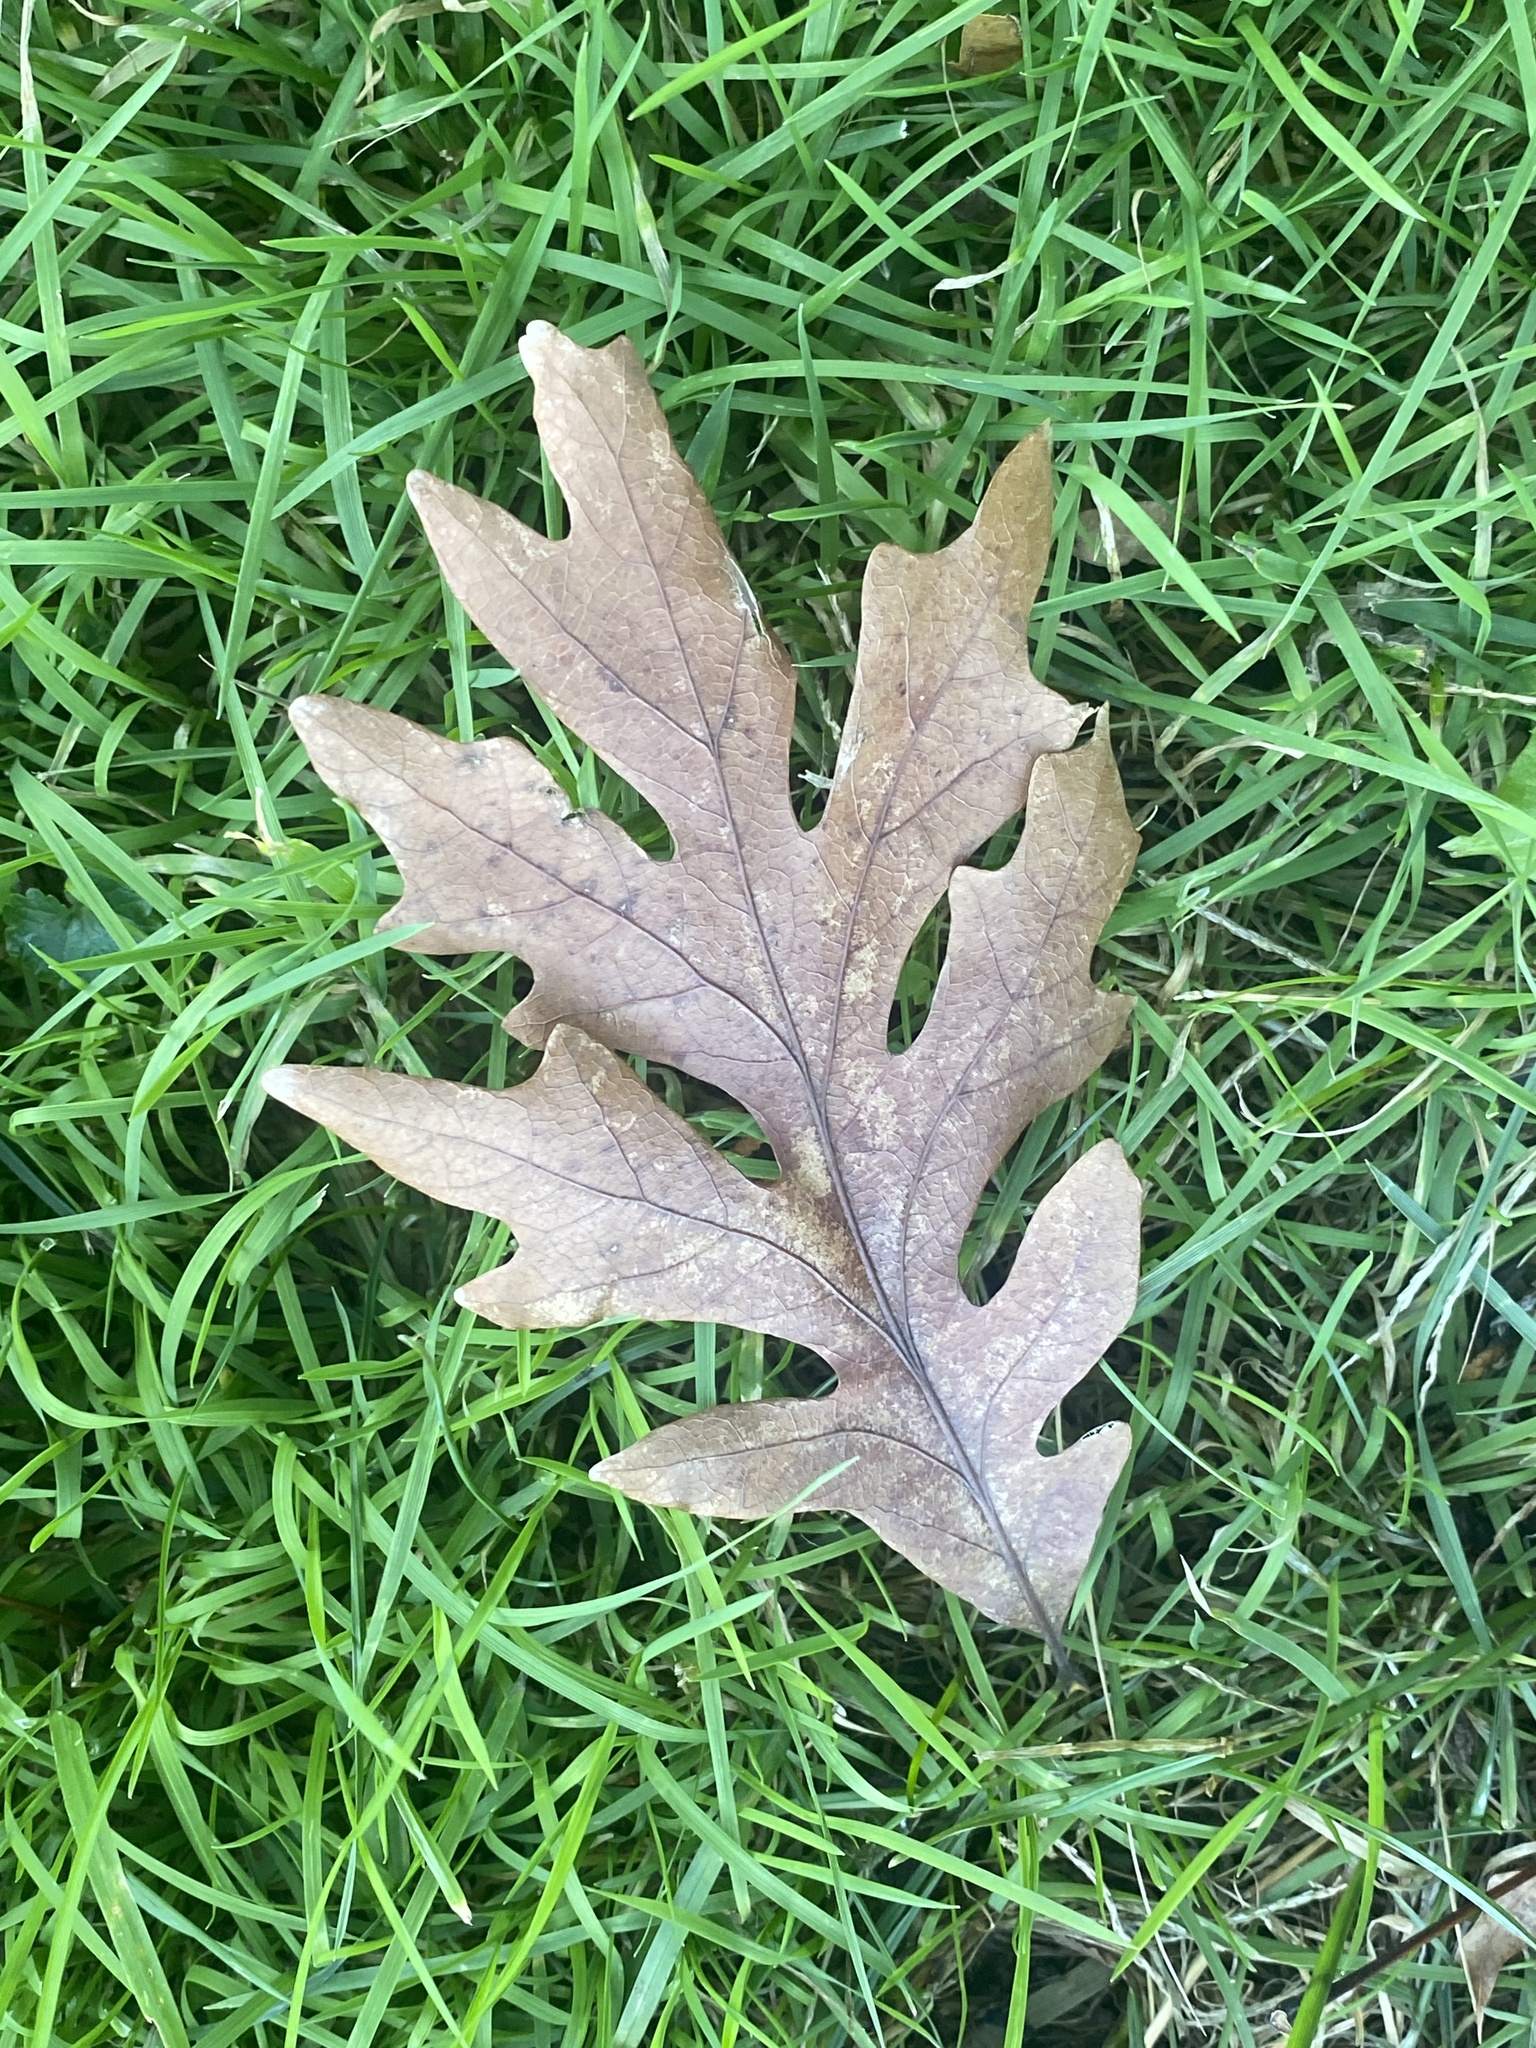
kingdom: Plantae
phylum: Tracheophyta
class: Magnoliopsida
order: Fagales
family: Fagaceae
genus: Quercus
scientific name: Quercus alba
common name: White oak
